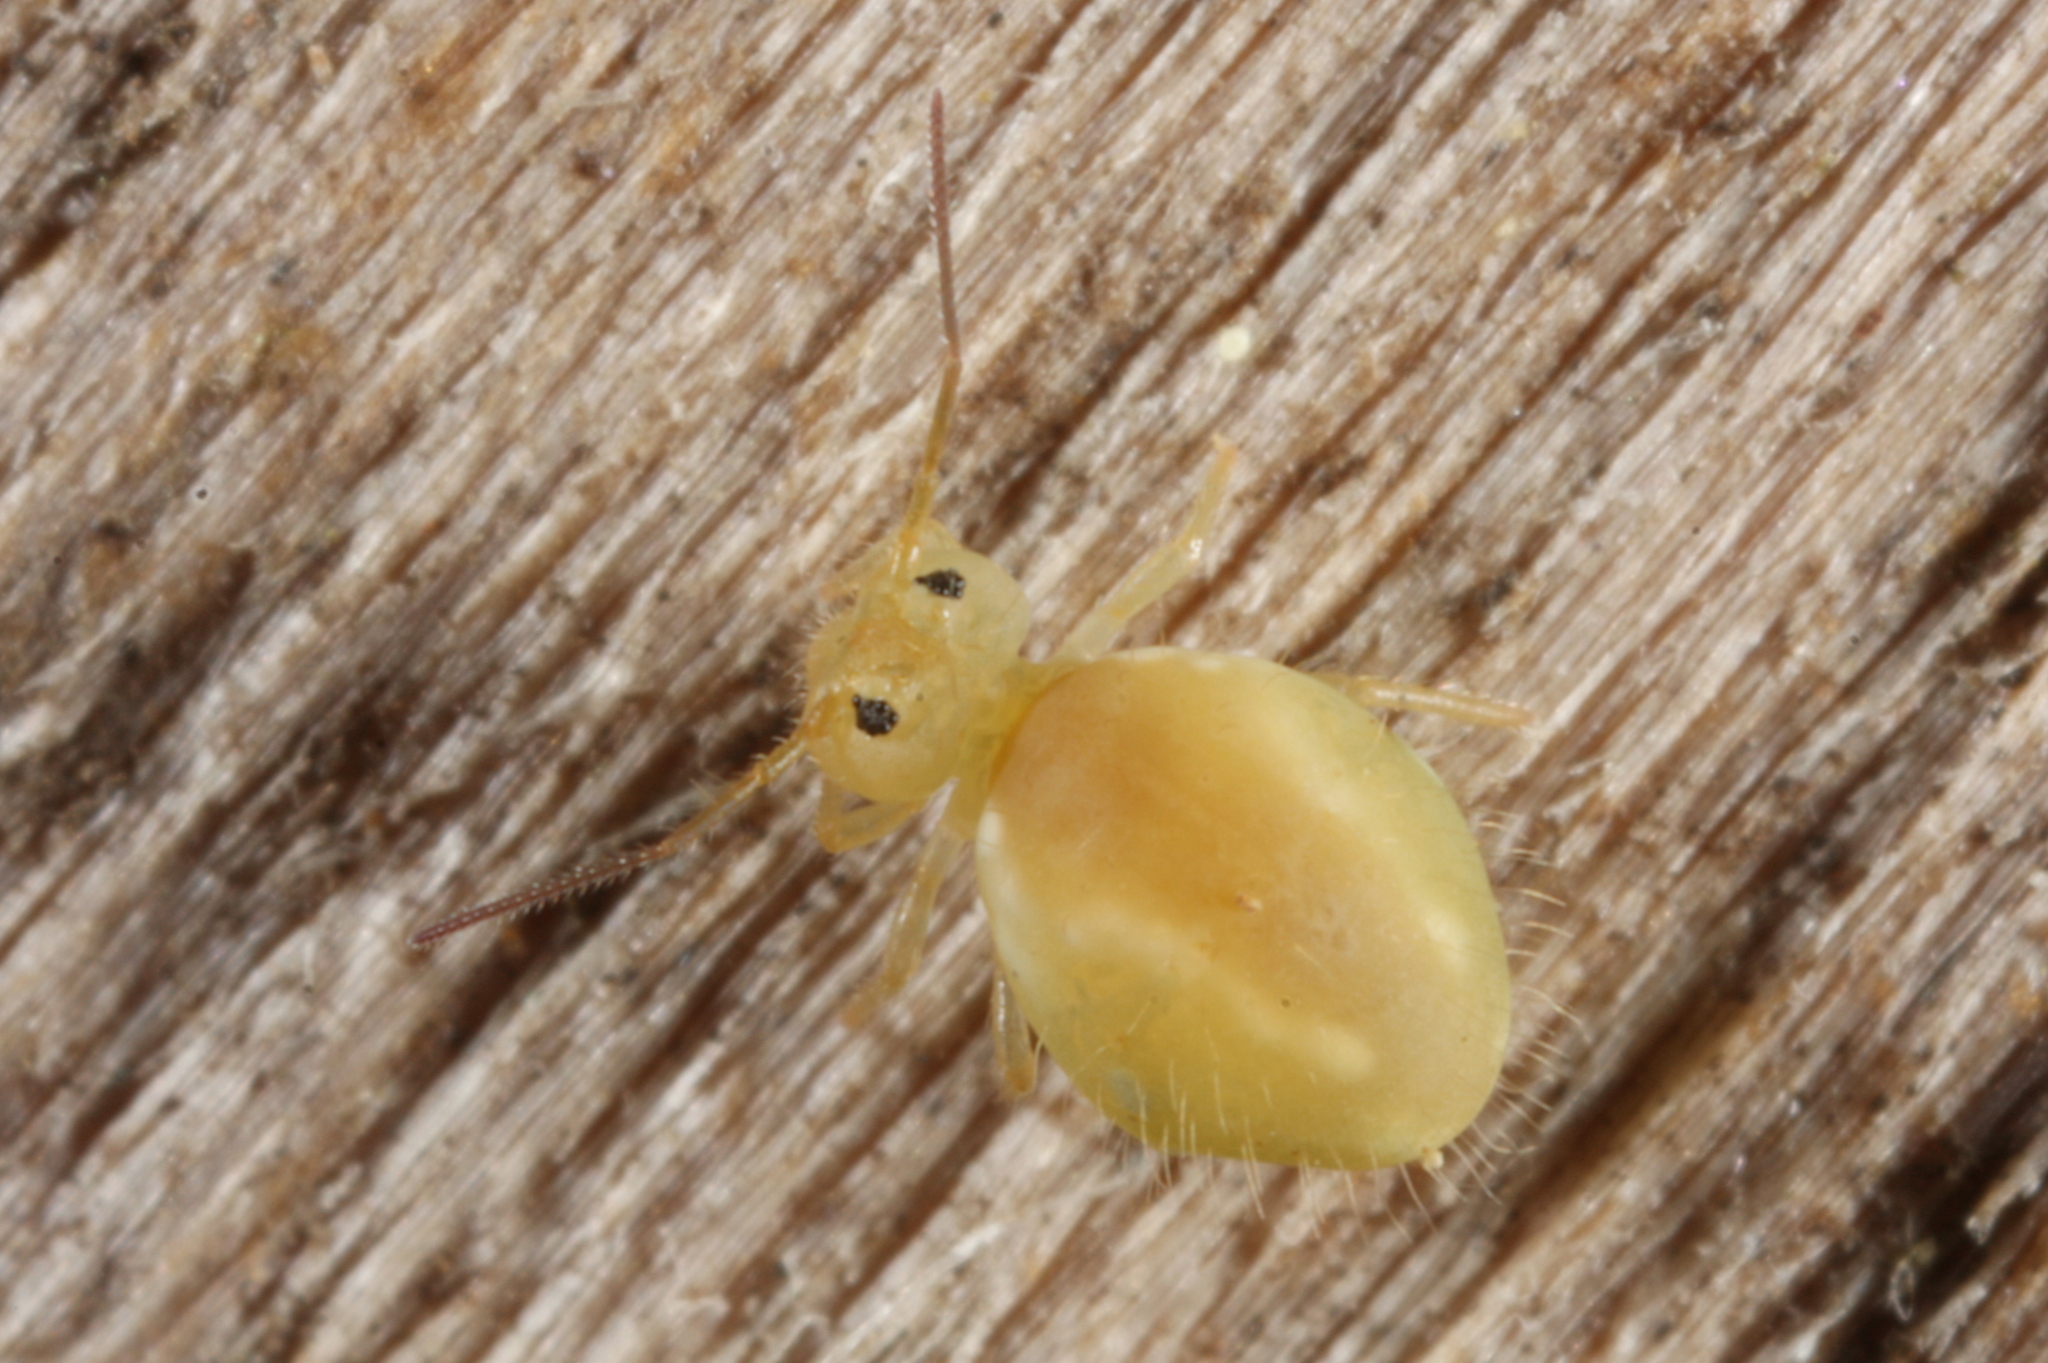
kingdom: Animalia
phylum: Arthropoda
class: Collembola
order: Symphypleona
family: Sminthuridae
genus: Sminthurus
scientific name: Sminthurus viridis
